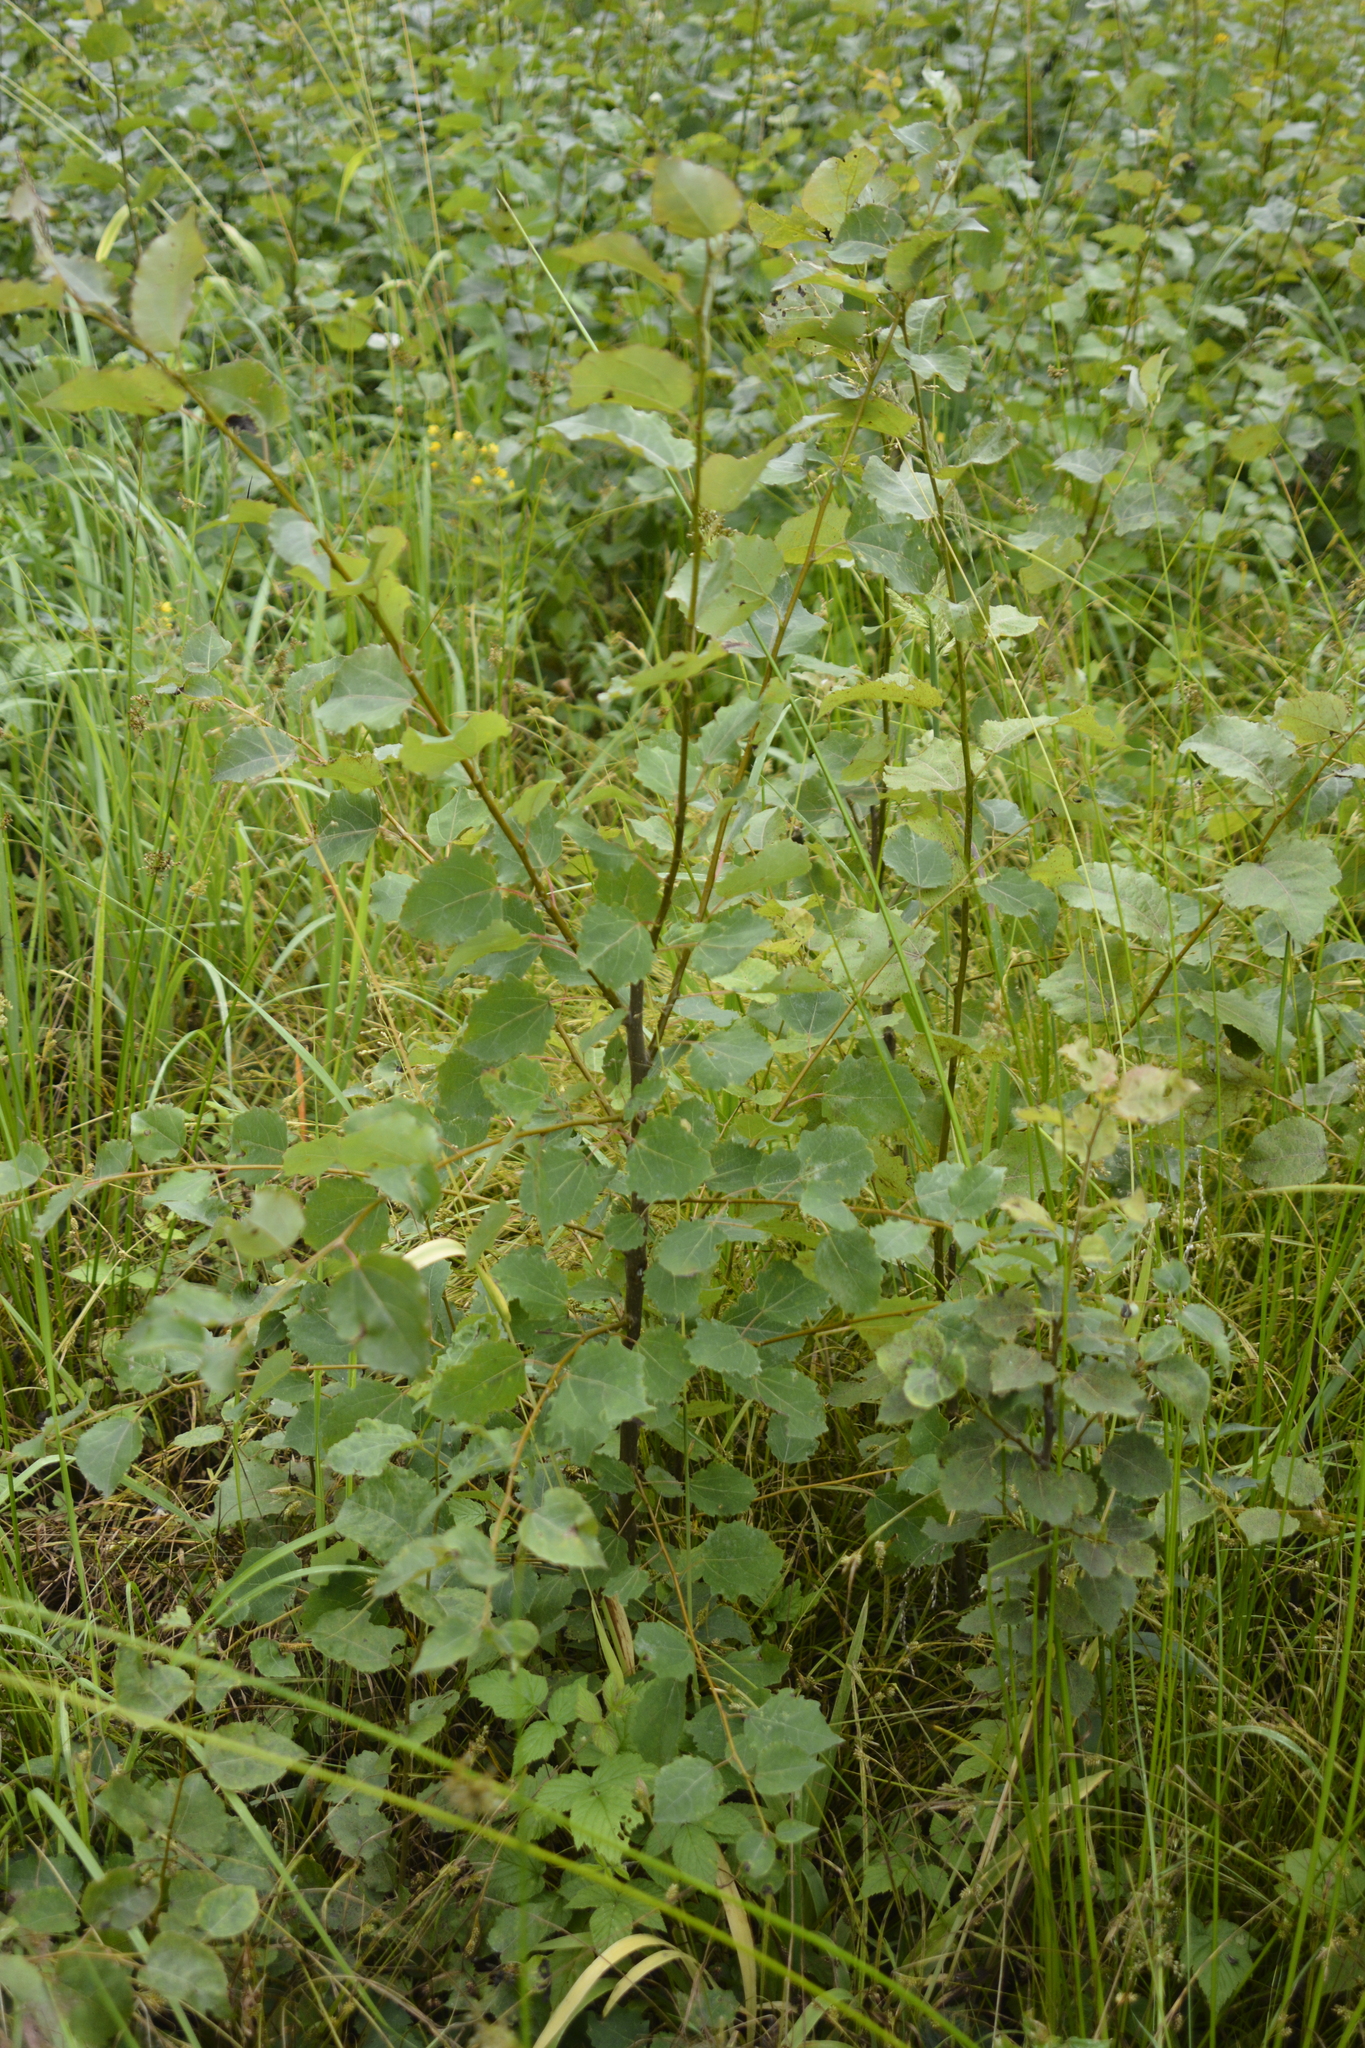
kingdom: Plantae
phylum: Tracheophyta
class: Magnoliopsida
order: Malpighiales
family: Salicaceae
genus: Populus
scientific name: Populus tremula
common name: European aspen
